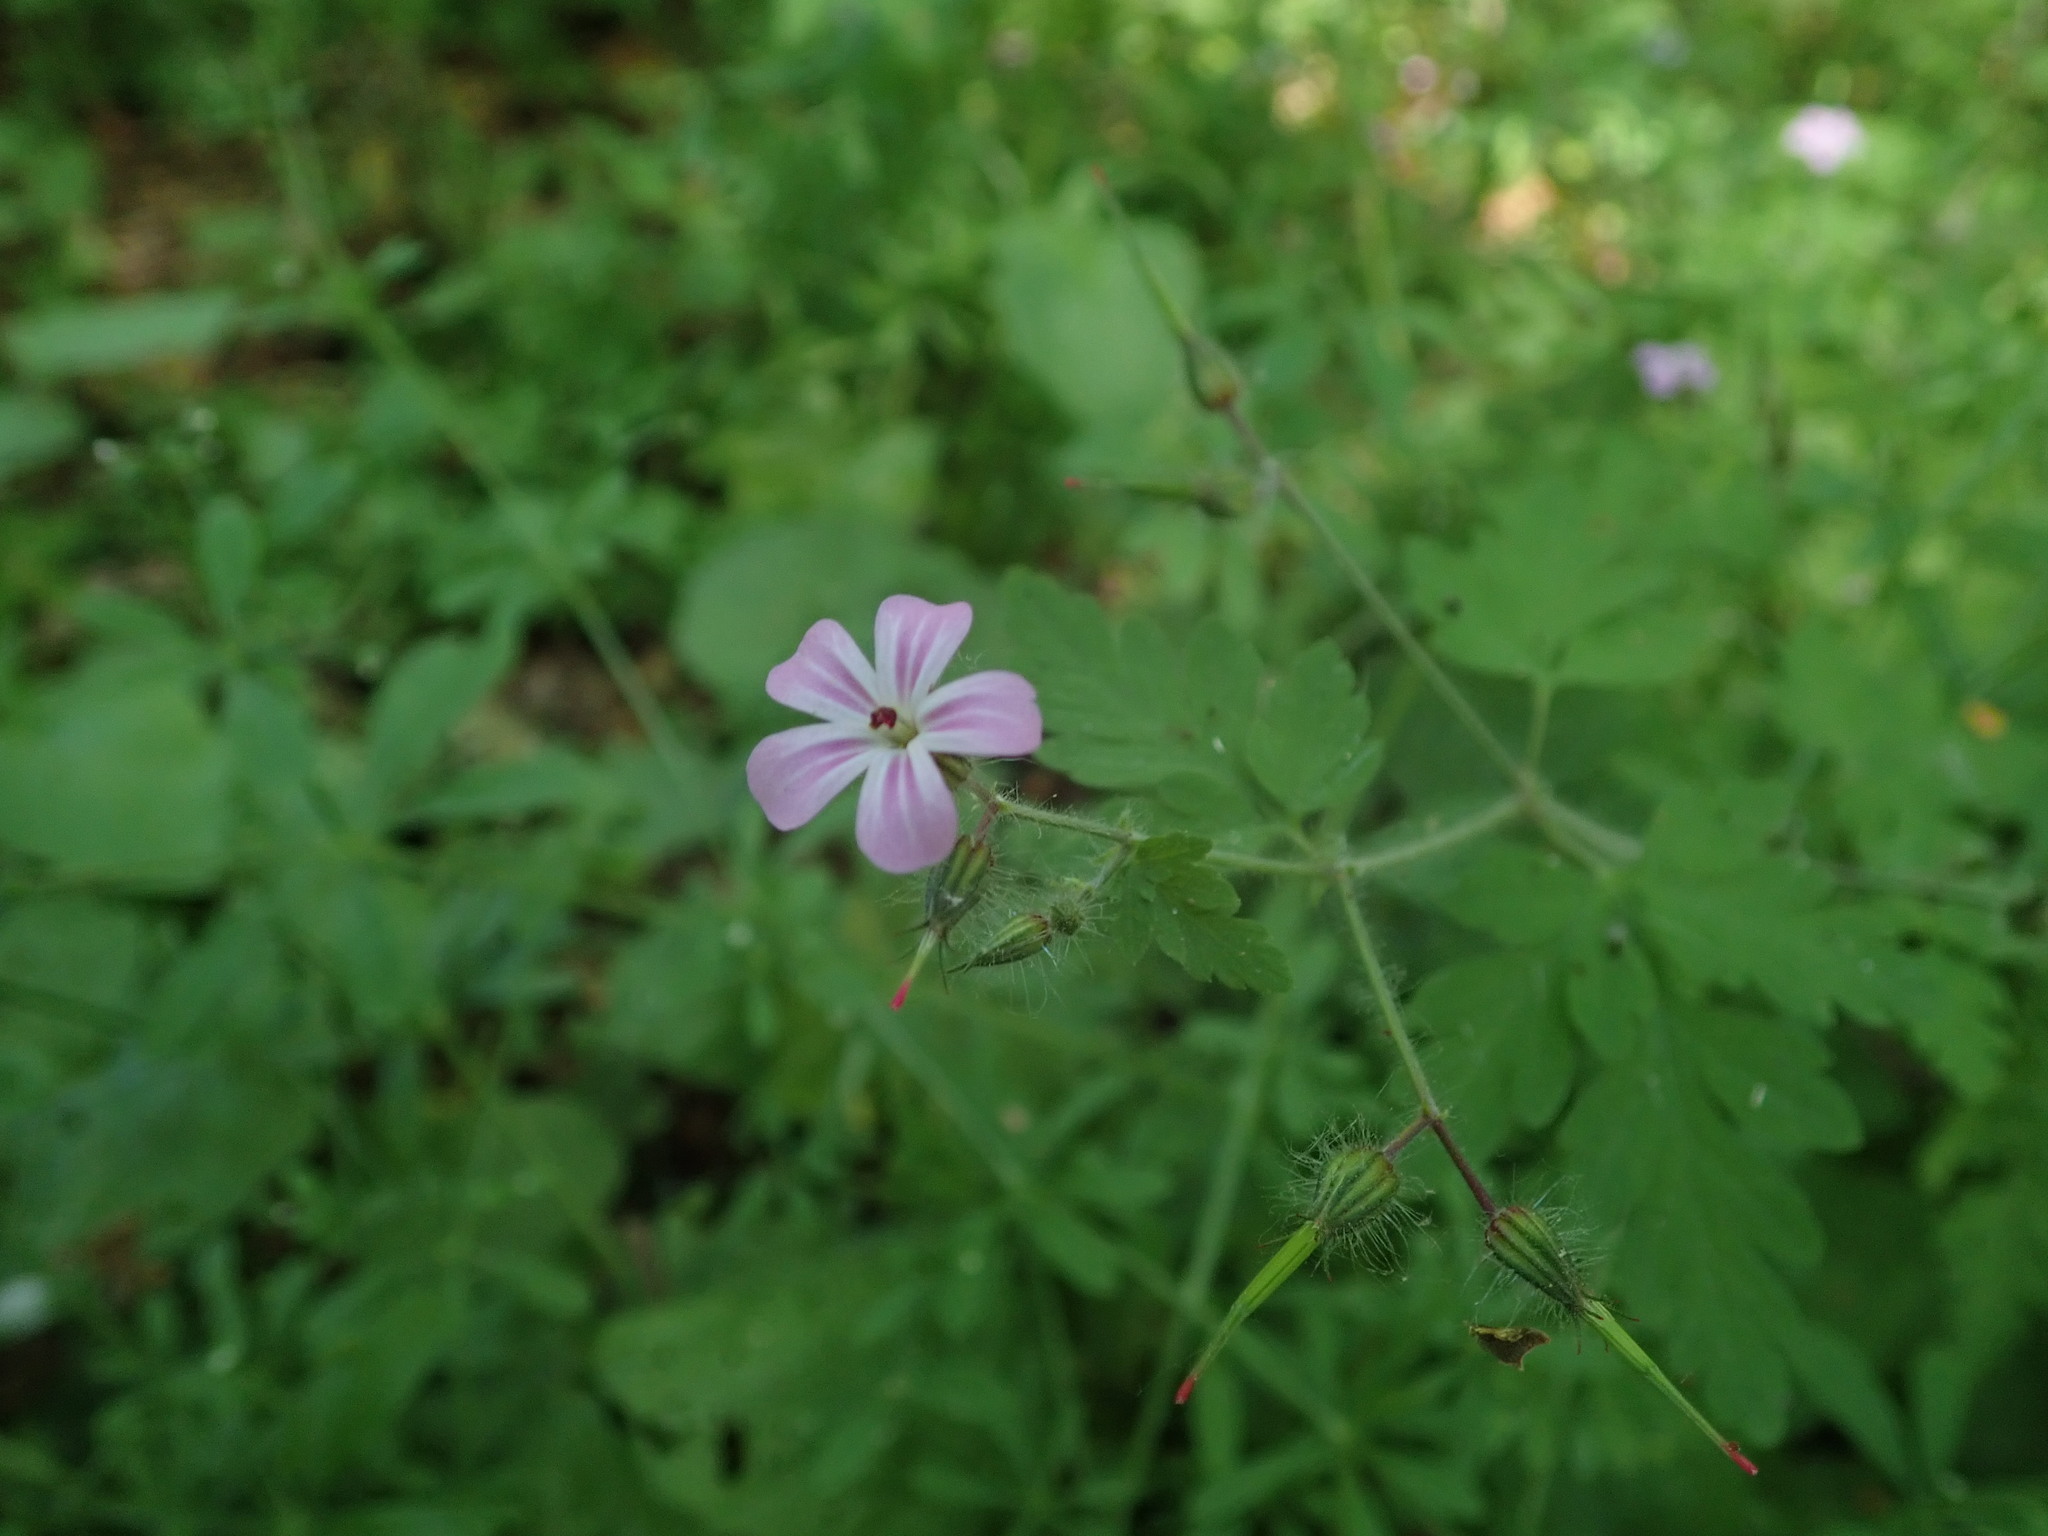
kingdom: Plantae
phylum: Tracheophyta
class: Magnoliopsida
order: Geraniales
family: Geraniaceae
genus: Geranium
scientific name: Geranium robertianum
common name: Herb-robert
